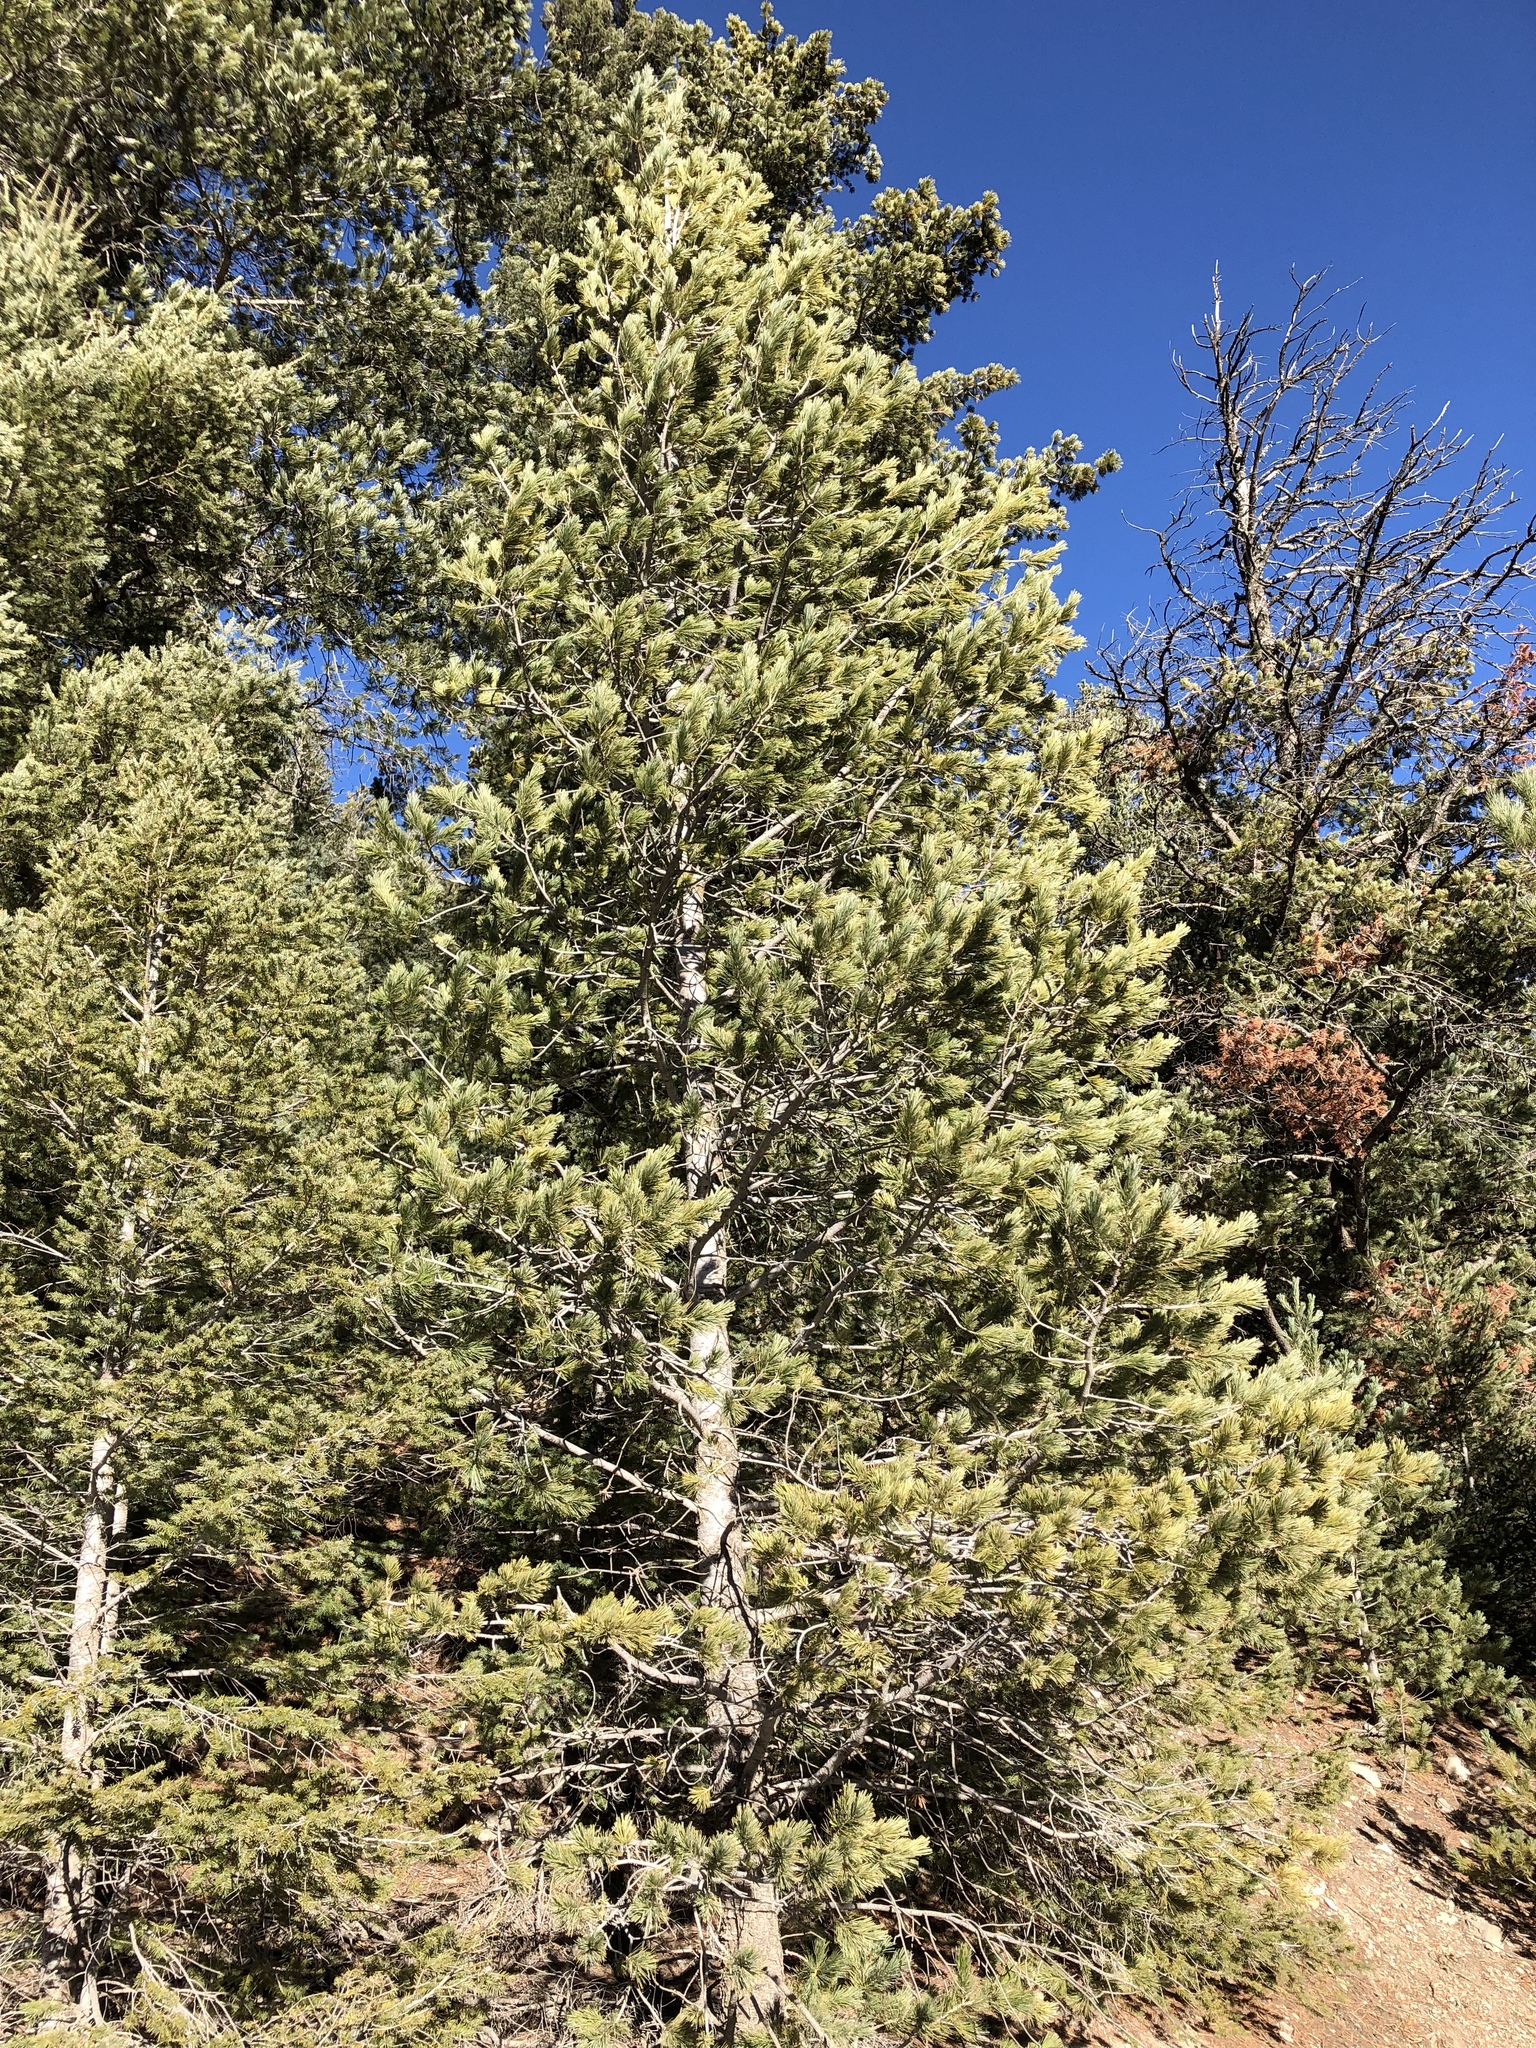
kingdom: Plantae
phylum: Tracheophyta
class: Pinopsida
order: Pinales
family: Pinaceae
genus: Pinus
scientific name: Pinus strobiformis
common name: Southwestern white pine
